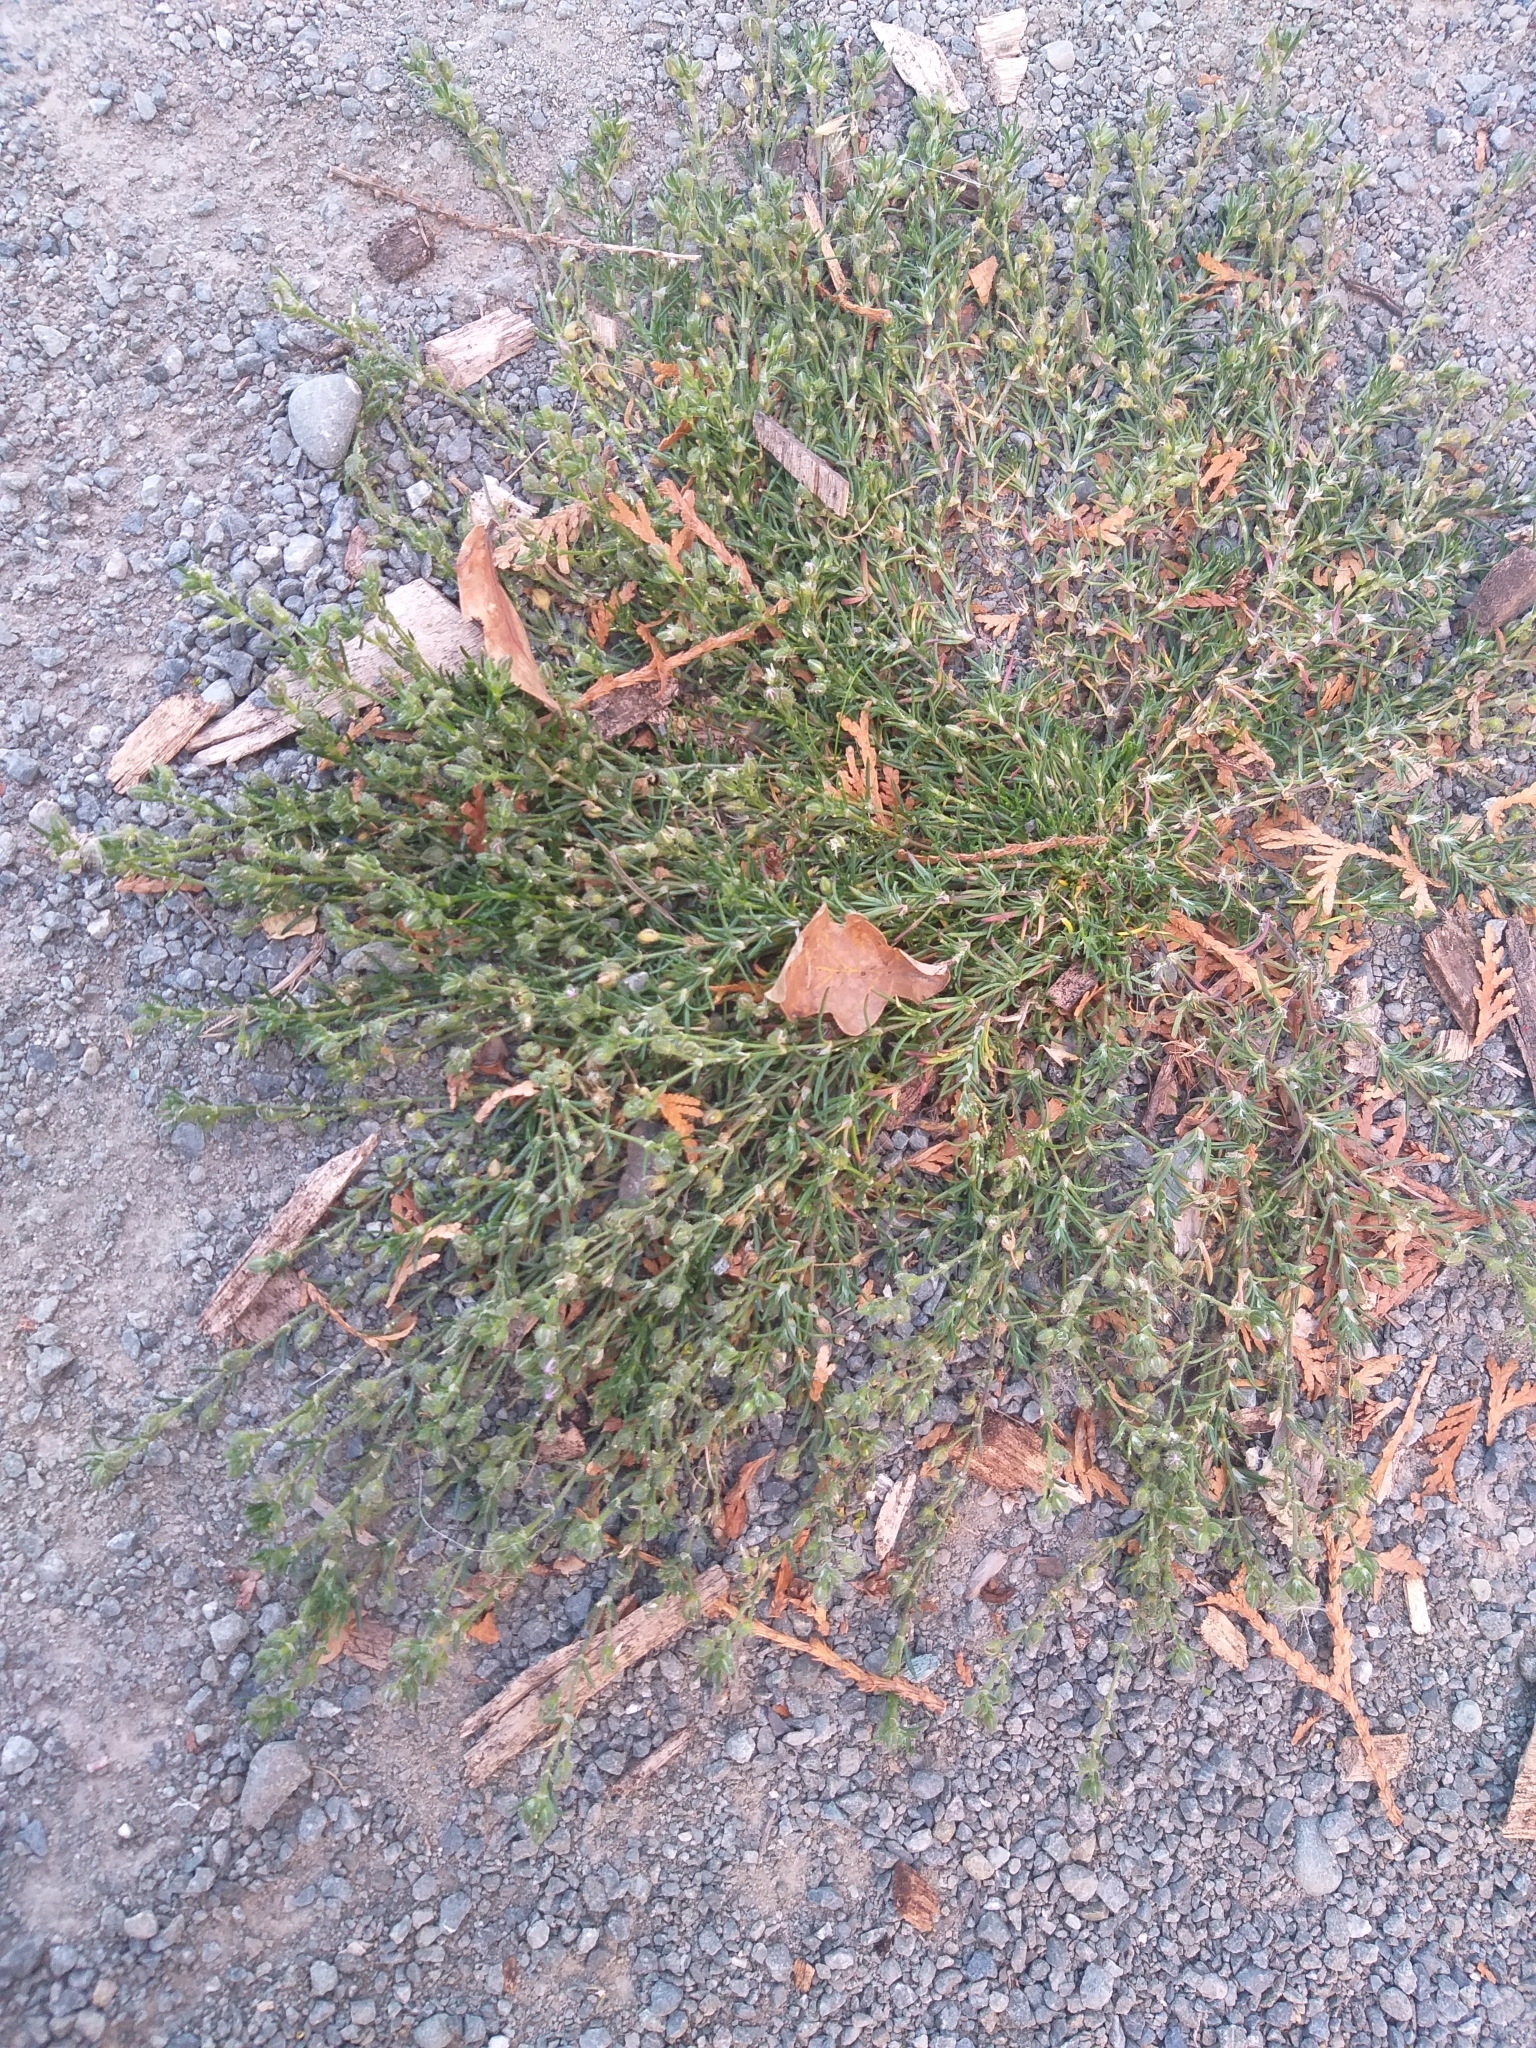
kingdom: Plantae
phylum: Tracheophyta
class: Magnoliopsida
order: Caryophyllales
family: Caryophyllaceae
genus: Spergularia
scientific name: Spergularia rubra
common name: Red sand-spurrey
